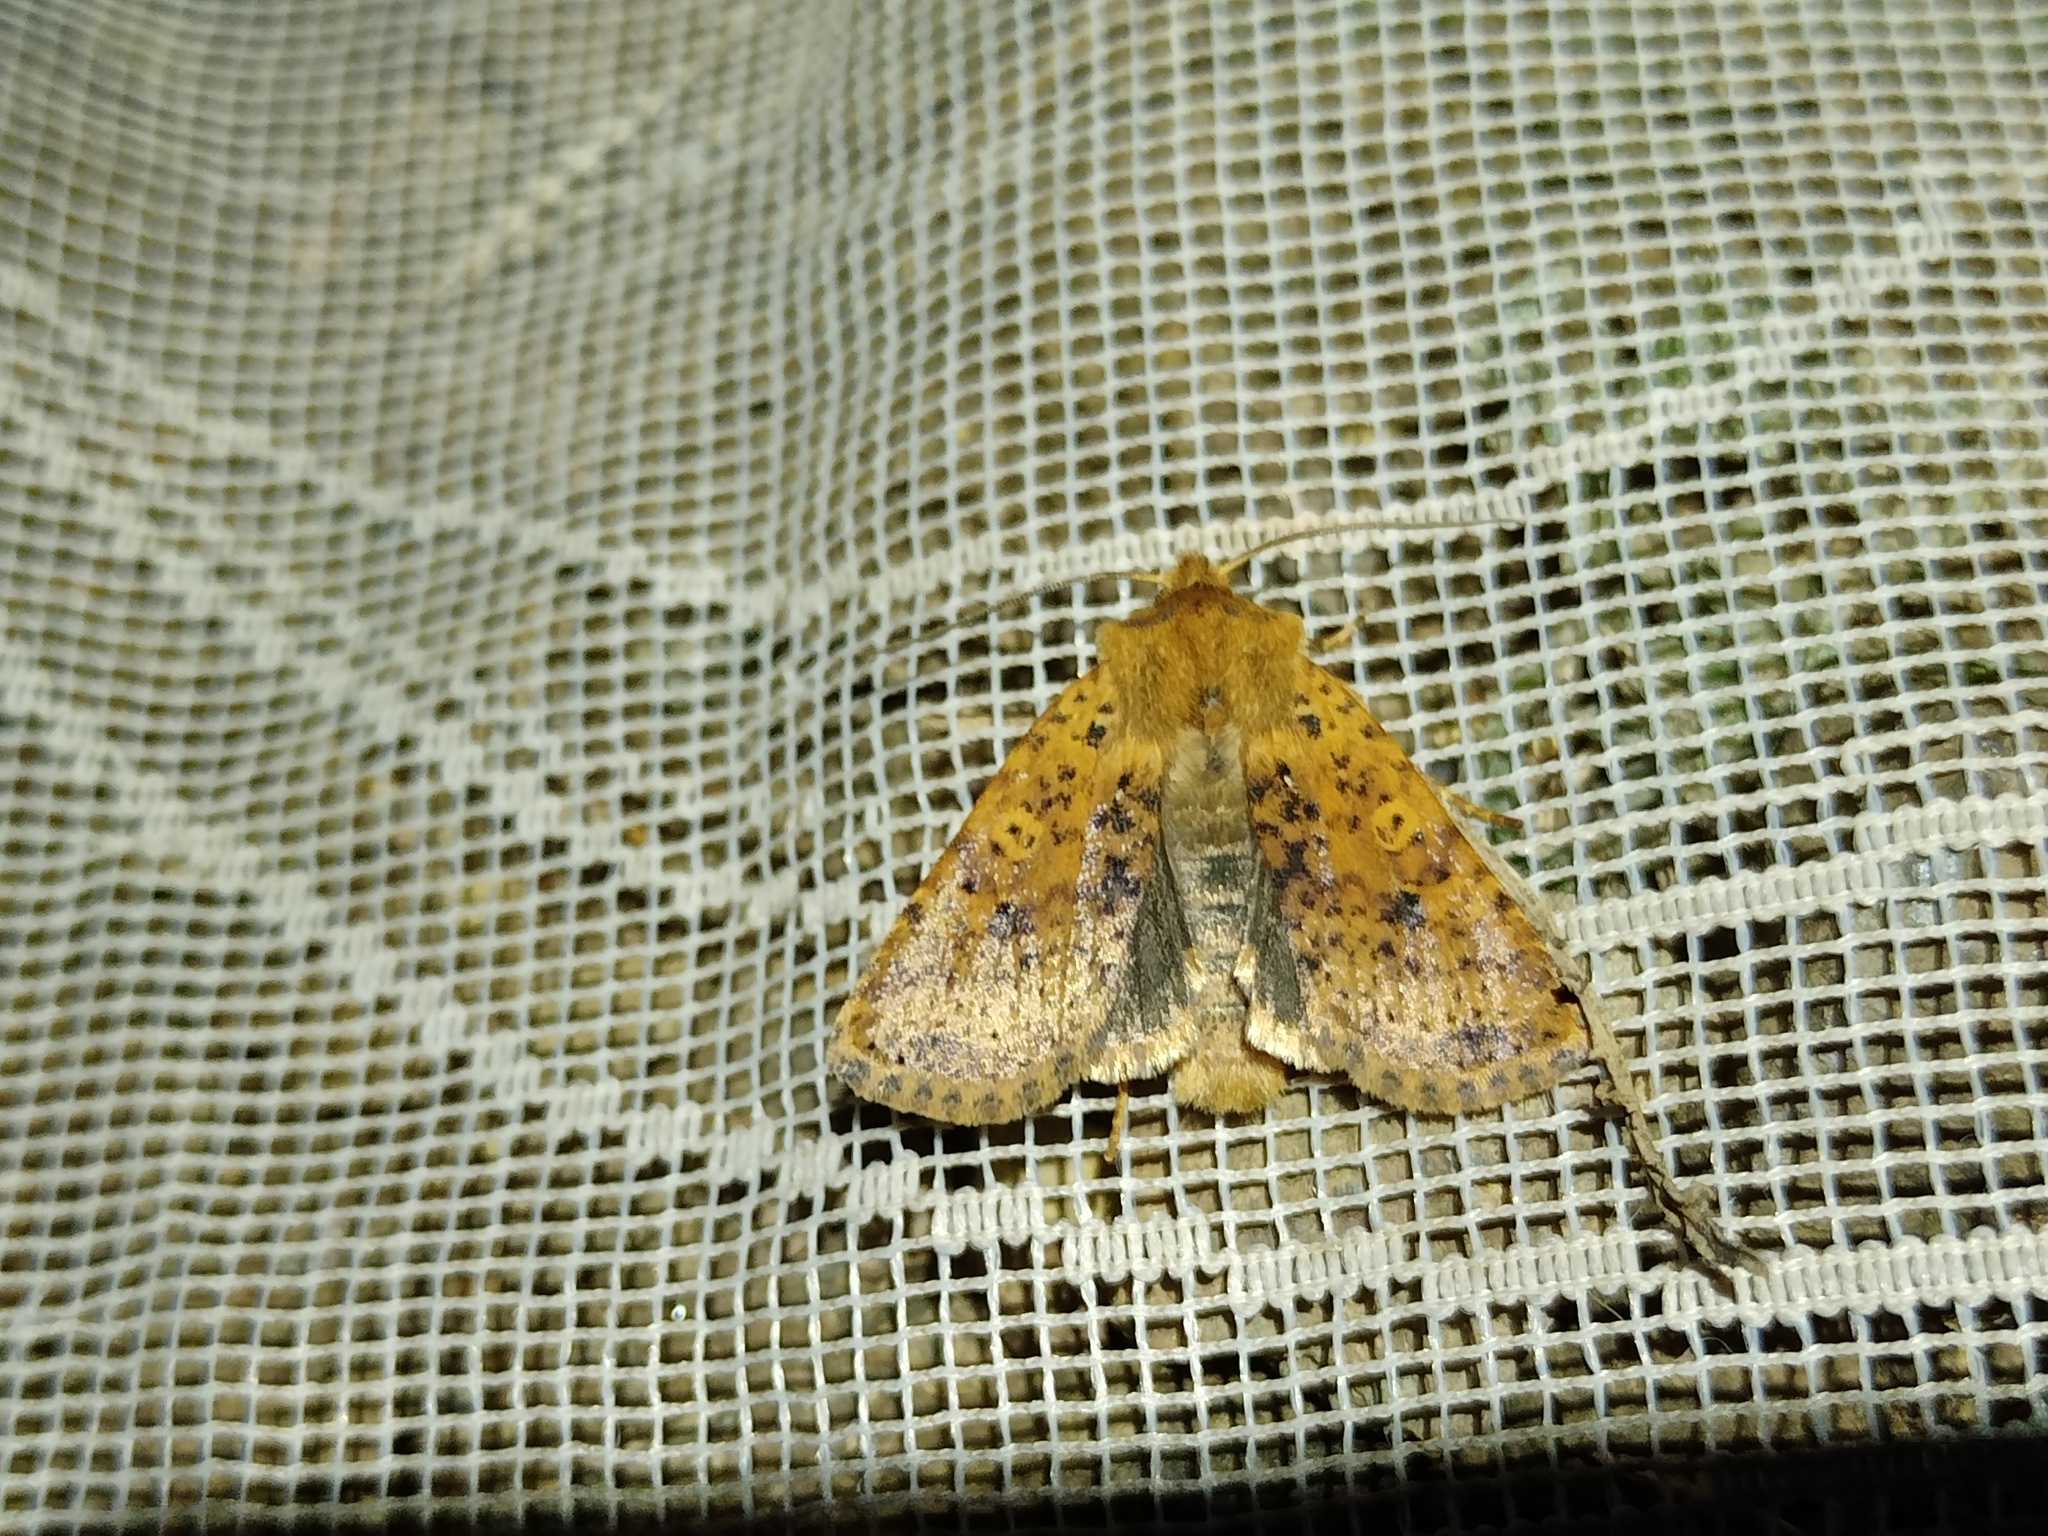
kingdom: Animalia
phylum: Arthropoda
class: Insecta
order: Lepidoptera
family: Noctuidae
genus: Conistra
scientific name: Conistra rubiginea
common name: Dotted chestnut
